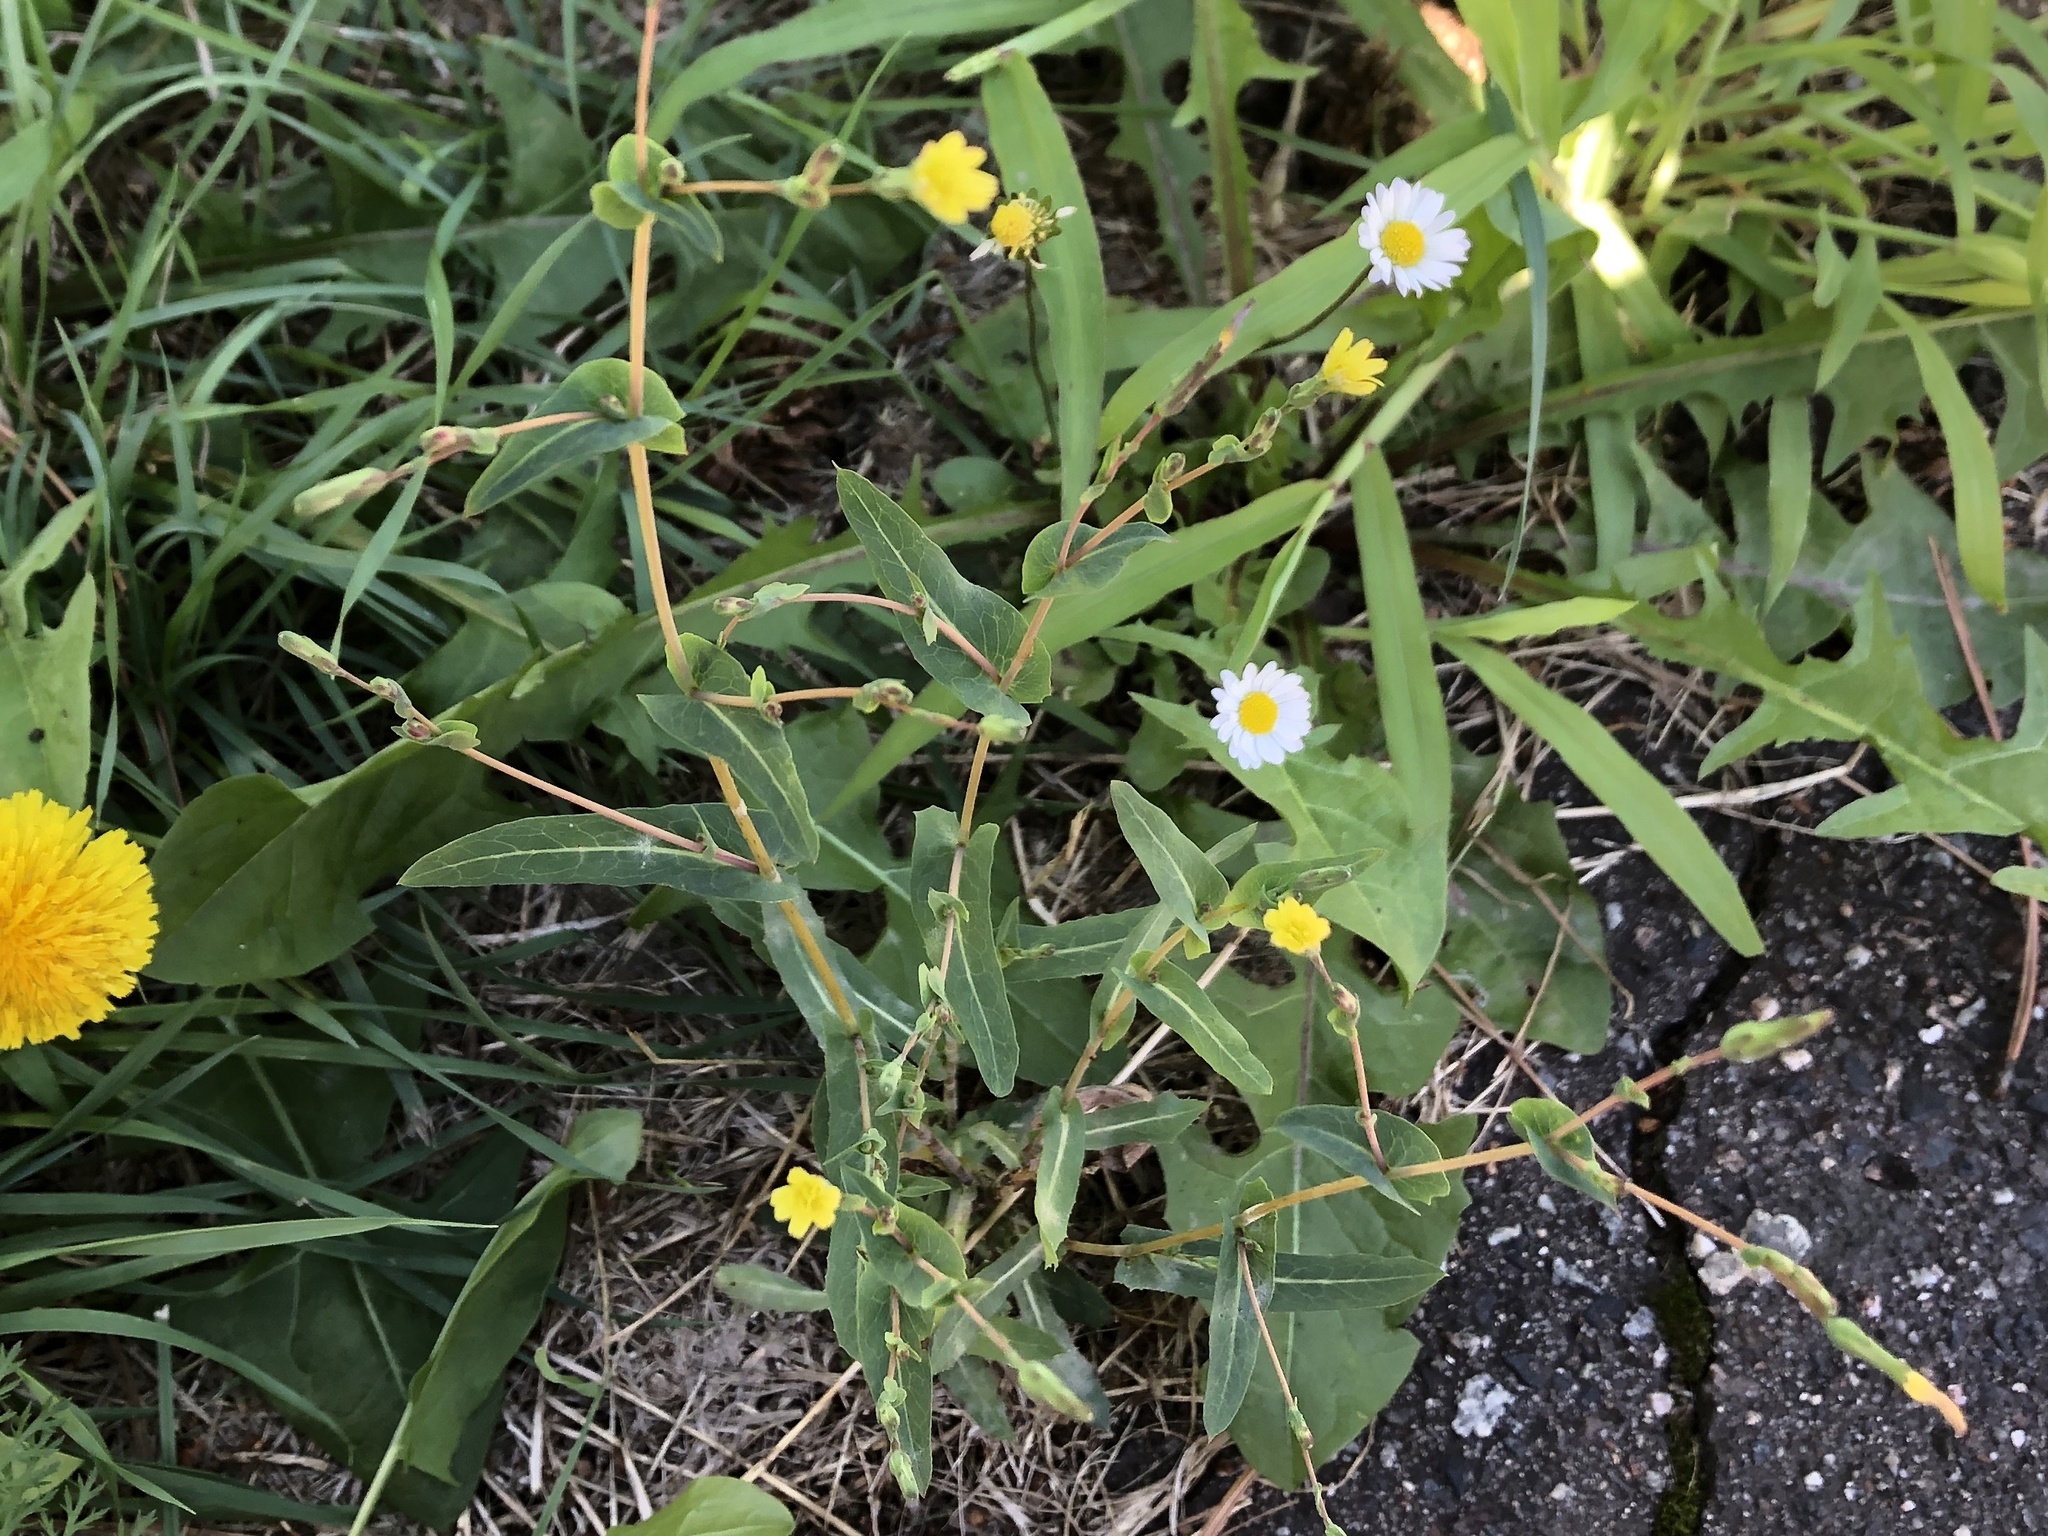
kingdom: Plantae
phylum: Tracheophyta
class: Magnoliopsida
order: Asterales
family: Asteraceae
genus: Lactuca
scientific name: Lactuca serriola
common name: Prickly lettuce
